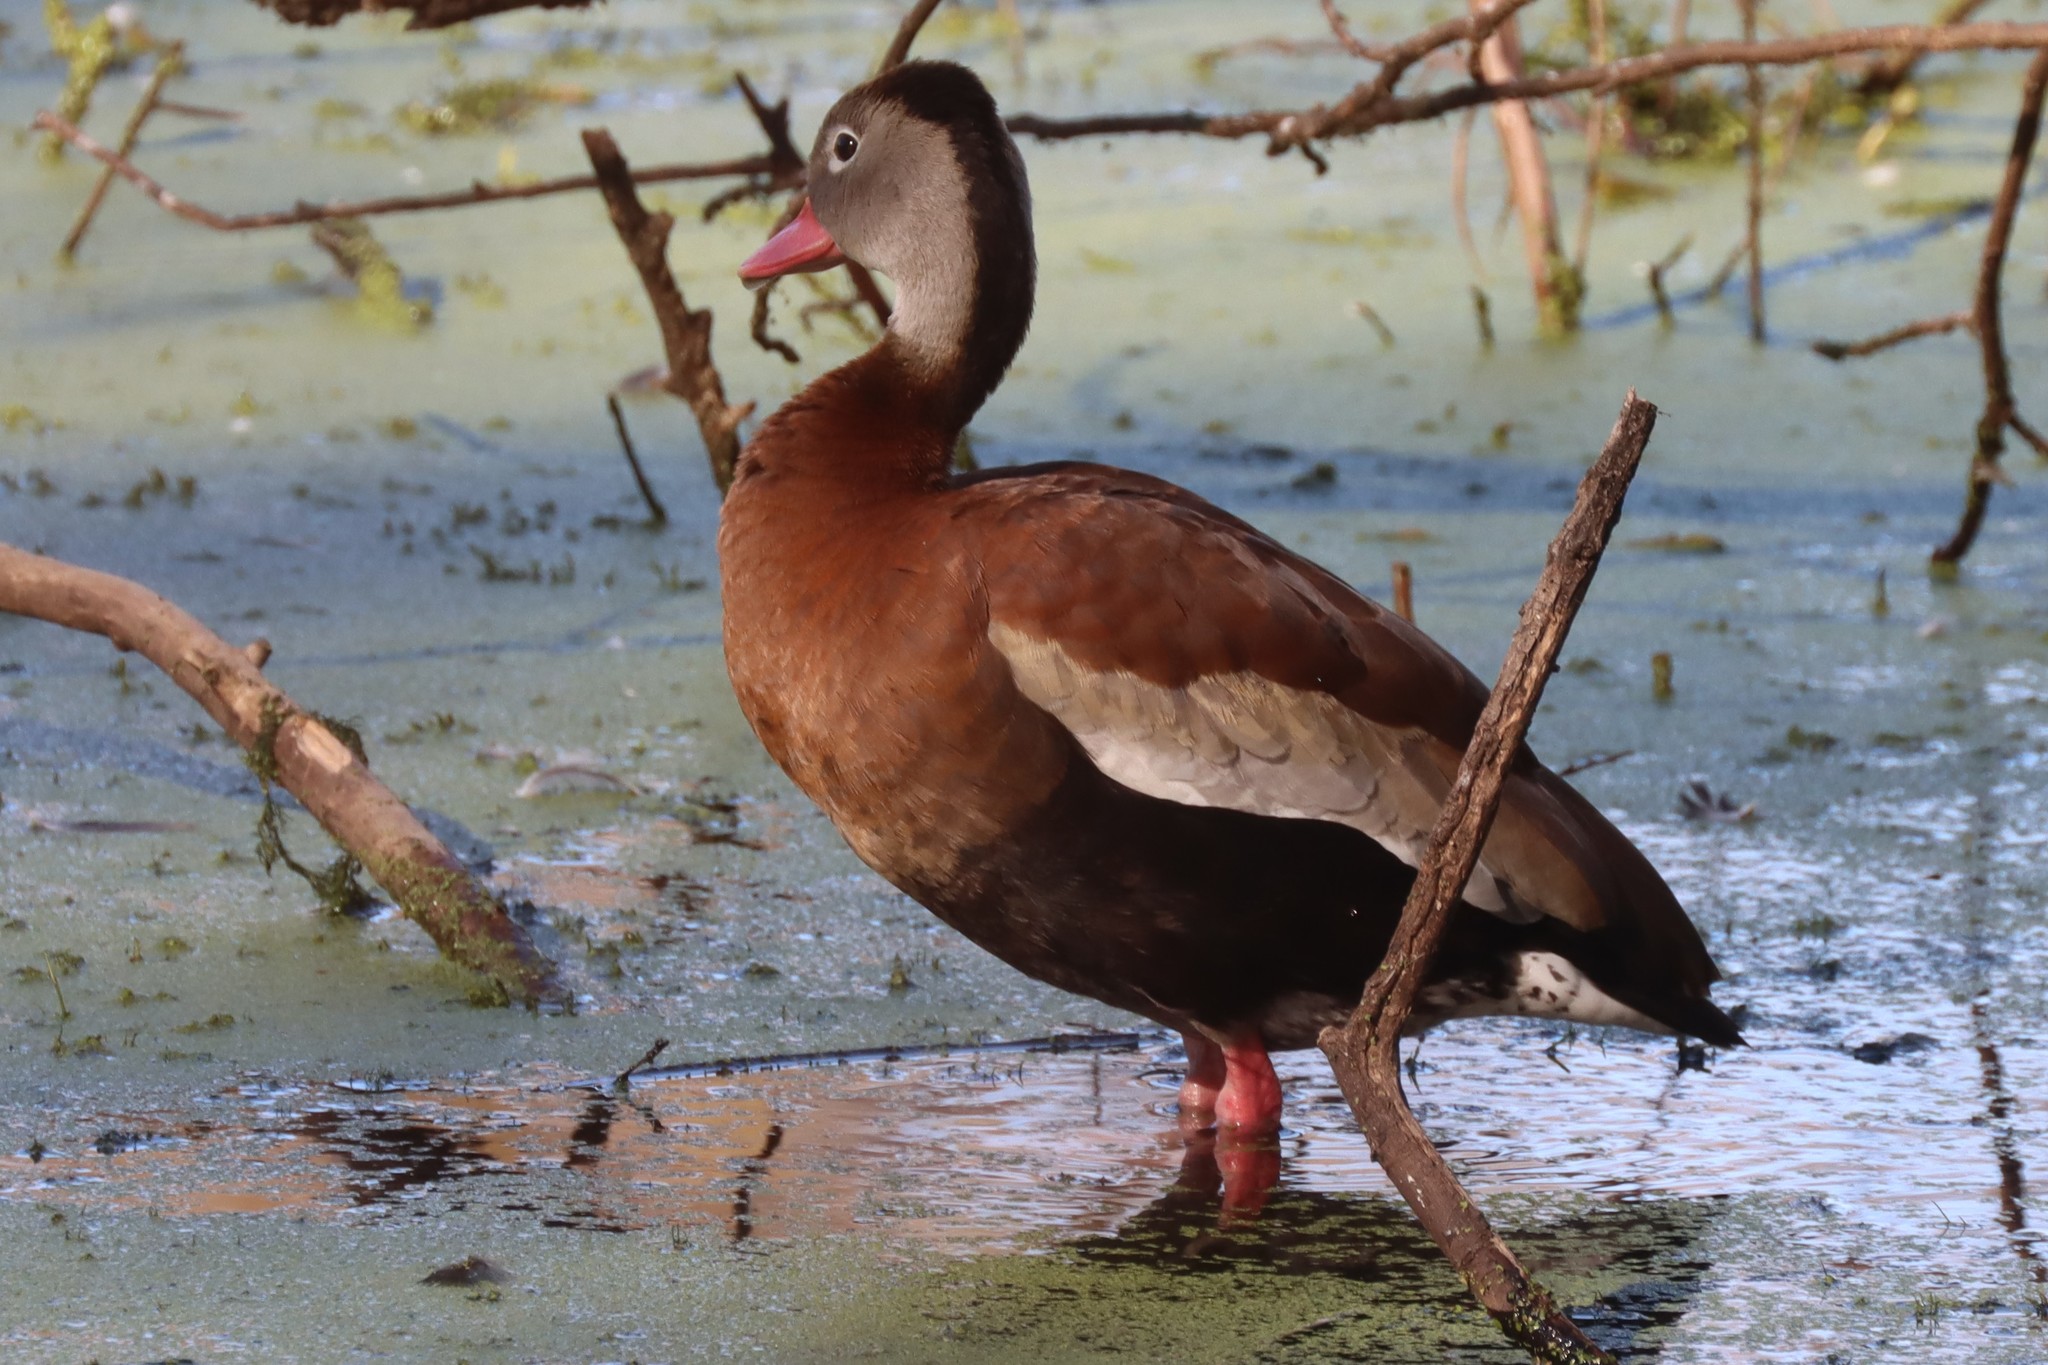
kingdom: Animalia
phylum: Chordata
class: Aves
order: Anseriformes
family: Anatidae
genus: Dendrocygna
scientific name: Dendrocygna autumnalis
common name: Black-bellied whistling duck
